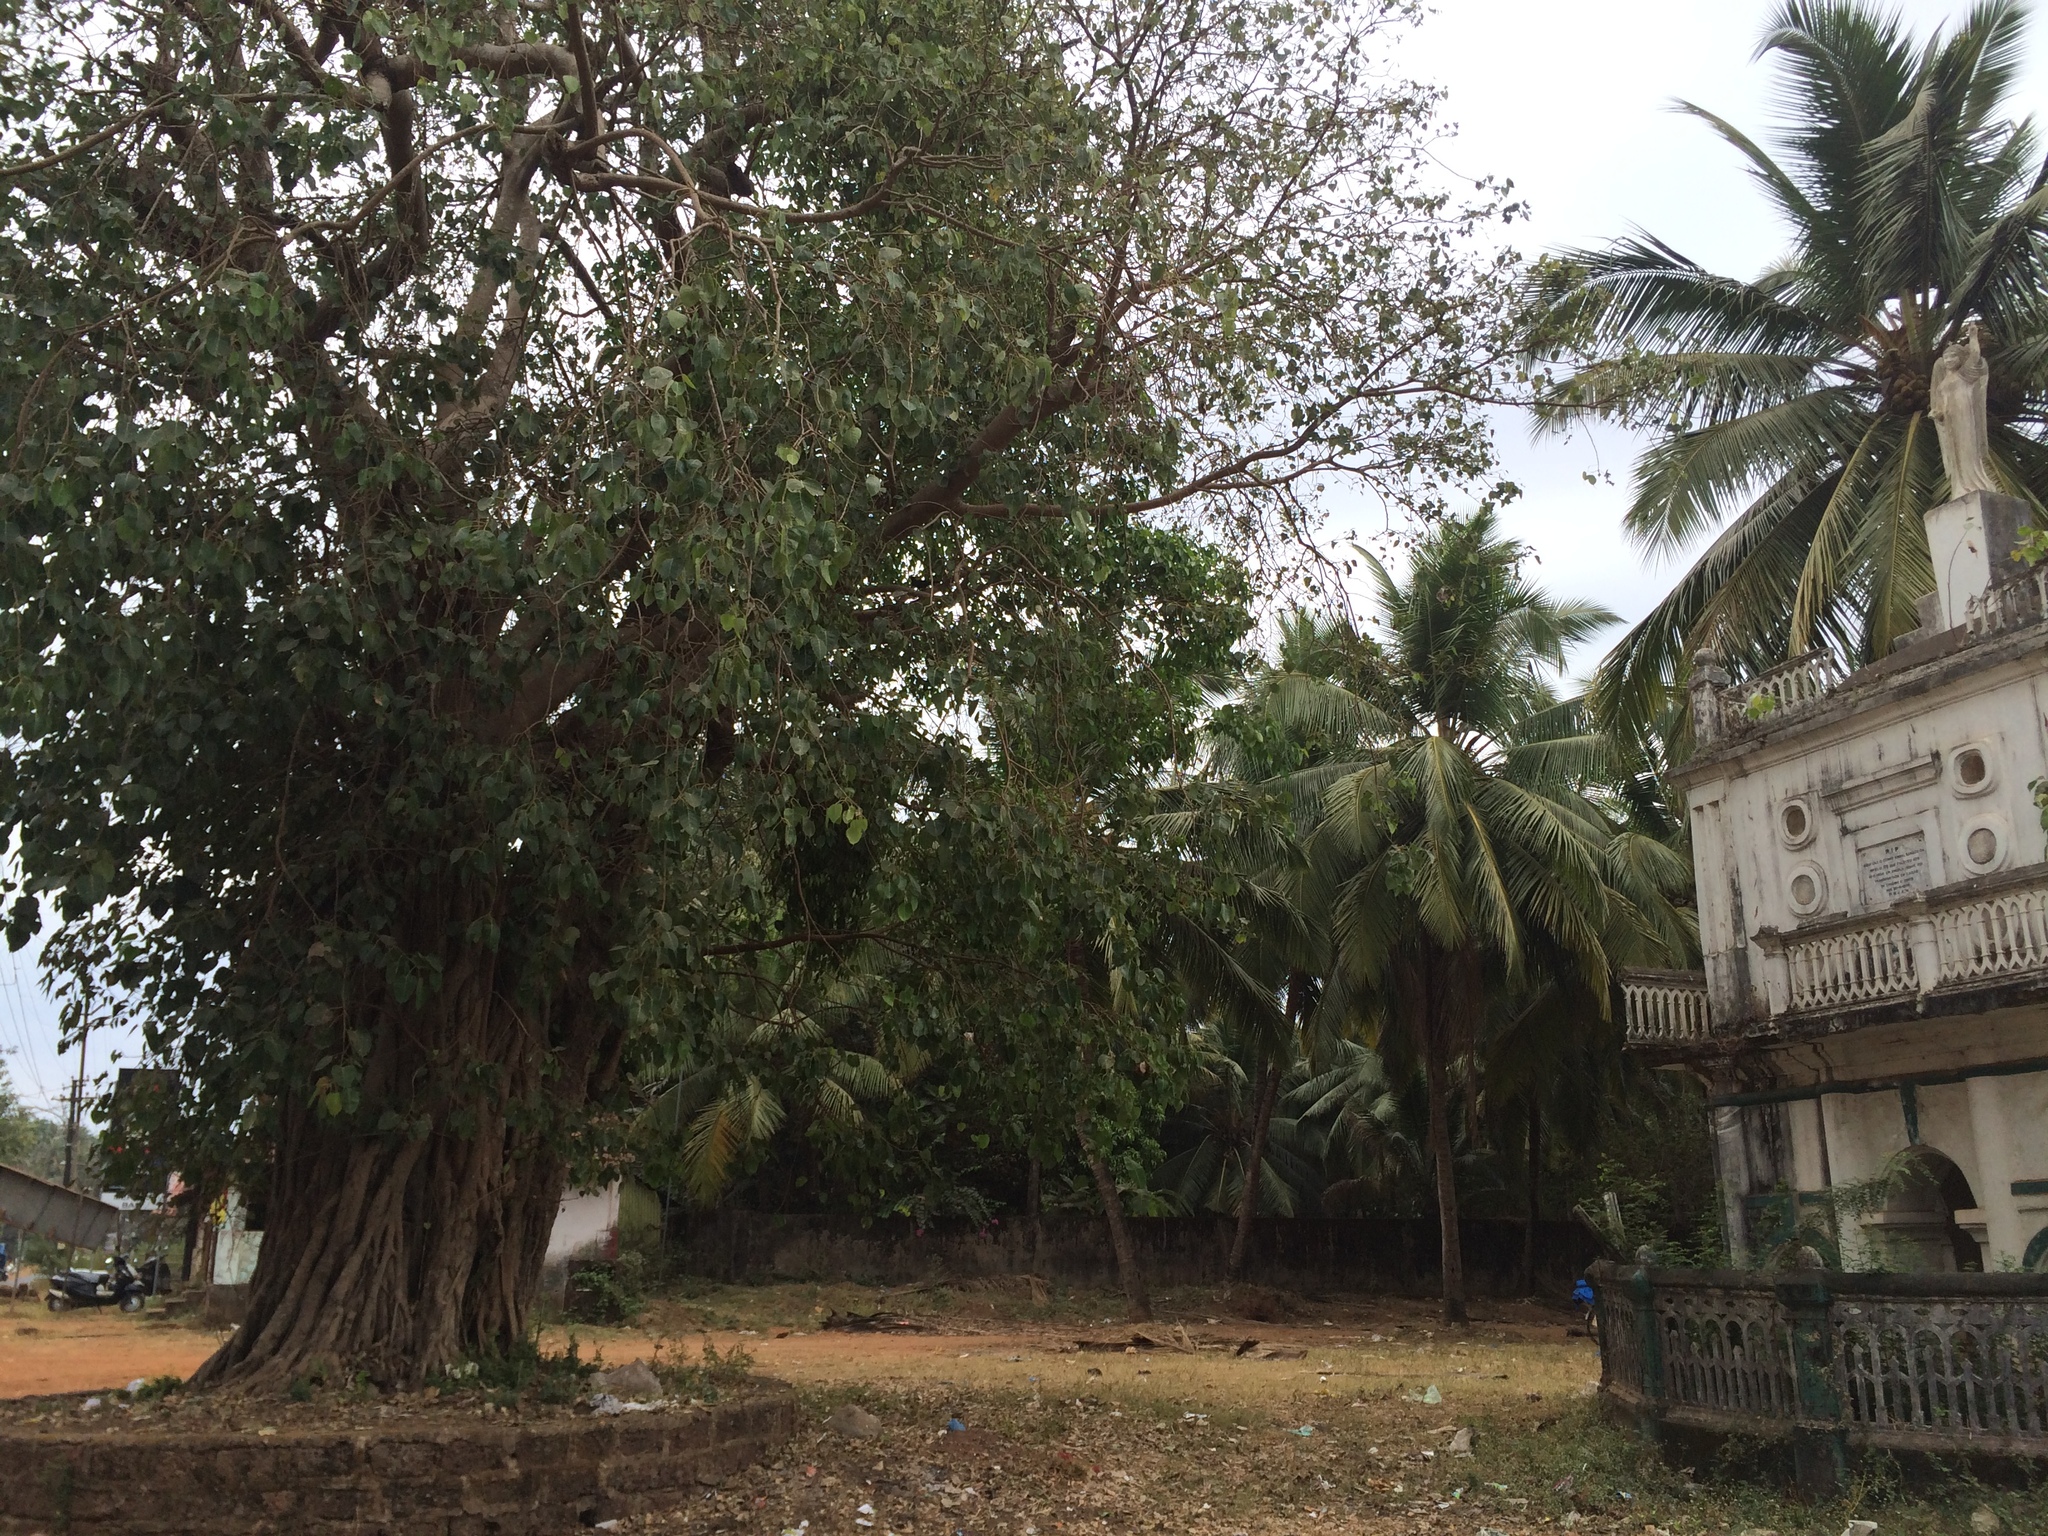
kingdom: Plantae
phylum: Tracheophyta
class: Magnoliopsida
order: Rosales
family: Moraceae
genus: Ficus
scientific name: Ficus religiosa
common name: Bodhi tree
